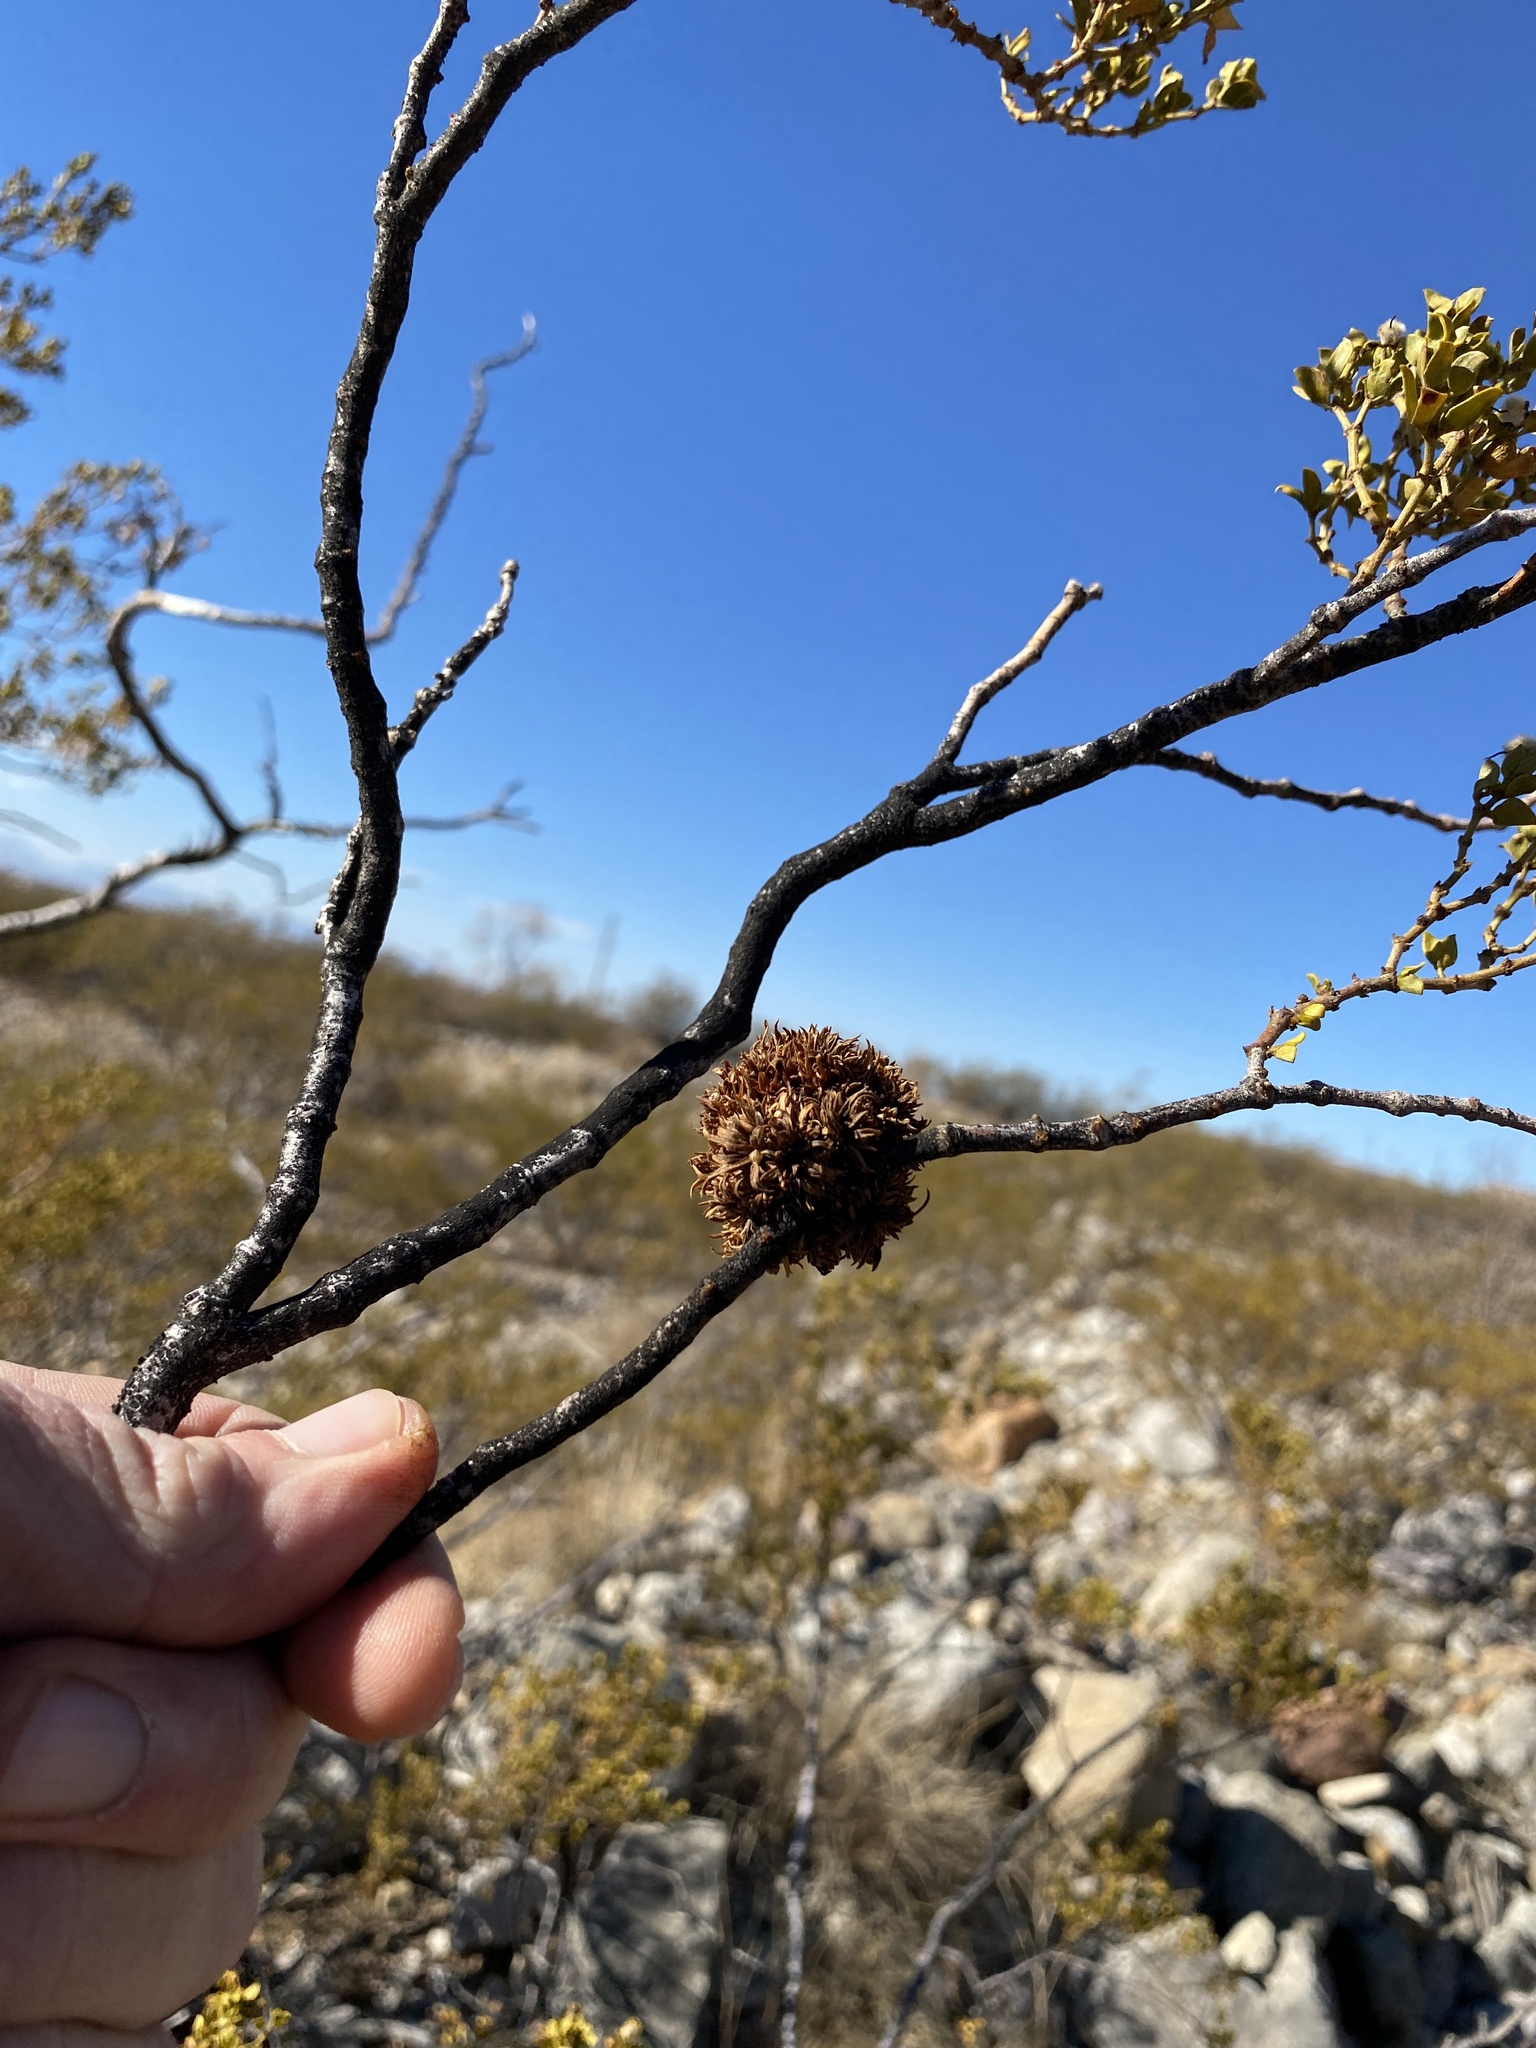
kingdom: Animalia
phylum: Arthropoda
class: Insecta
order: Diptera
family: Cecidomyiidae
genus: Asphondylia
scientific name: Asphondylia auripila
